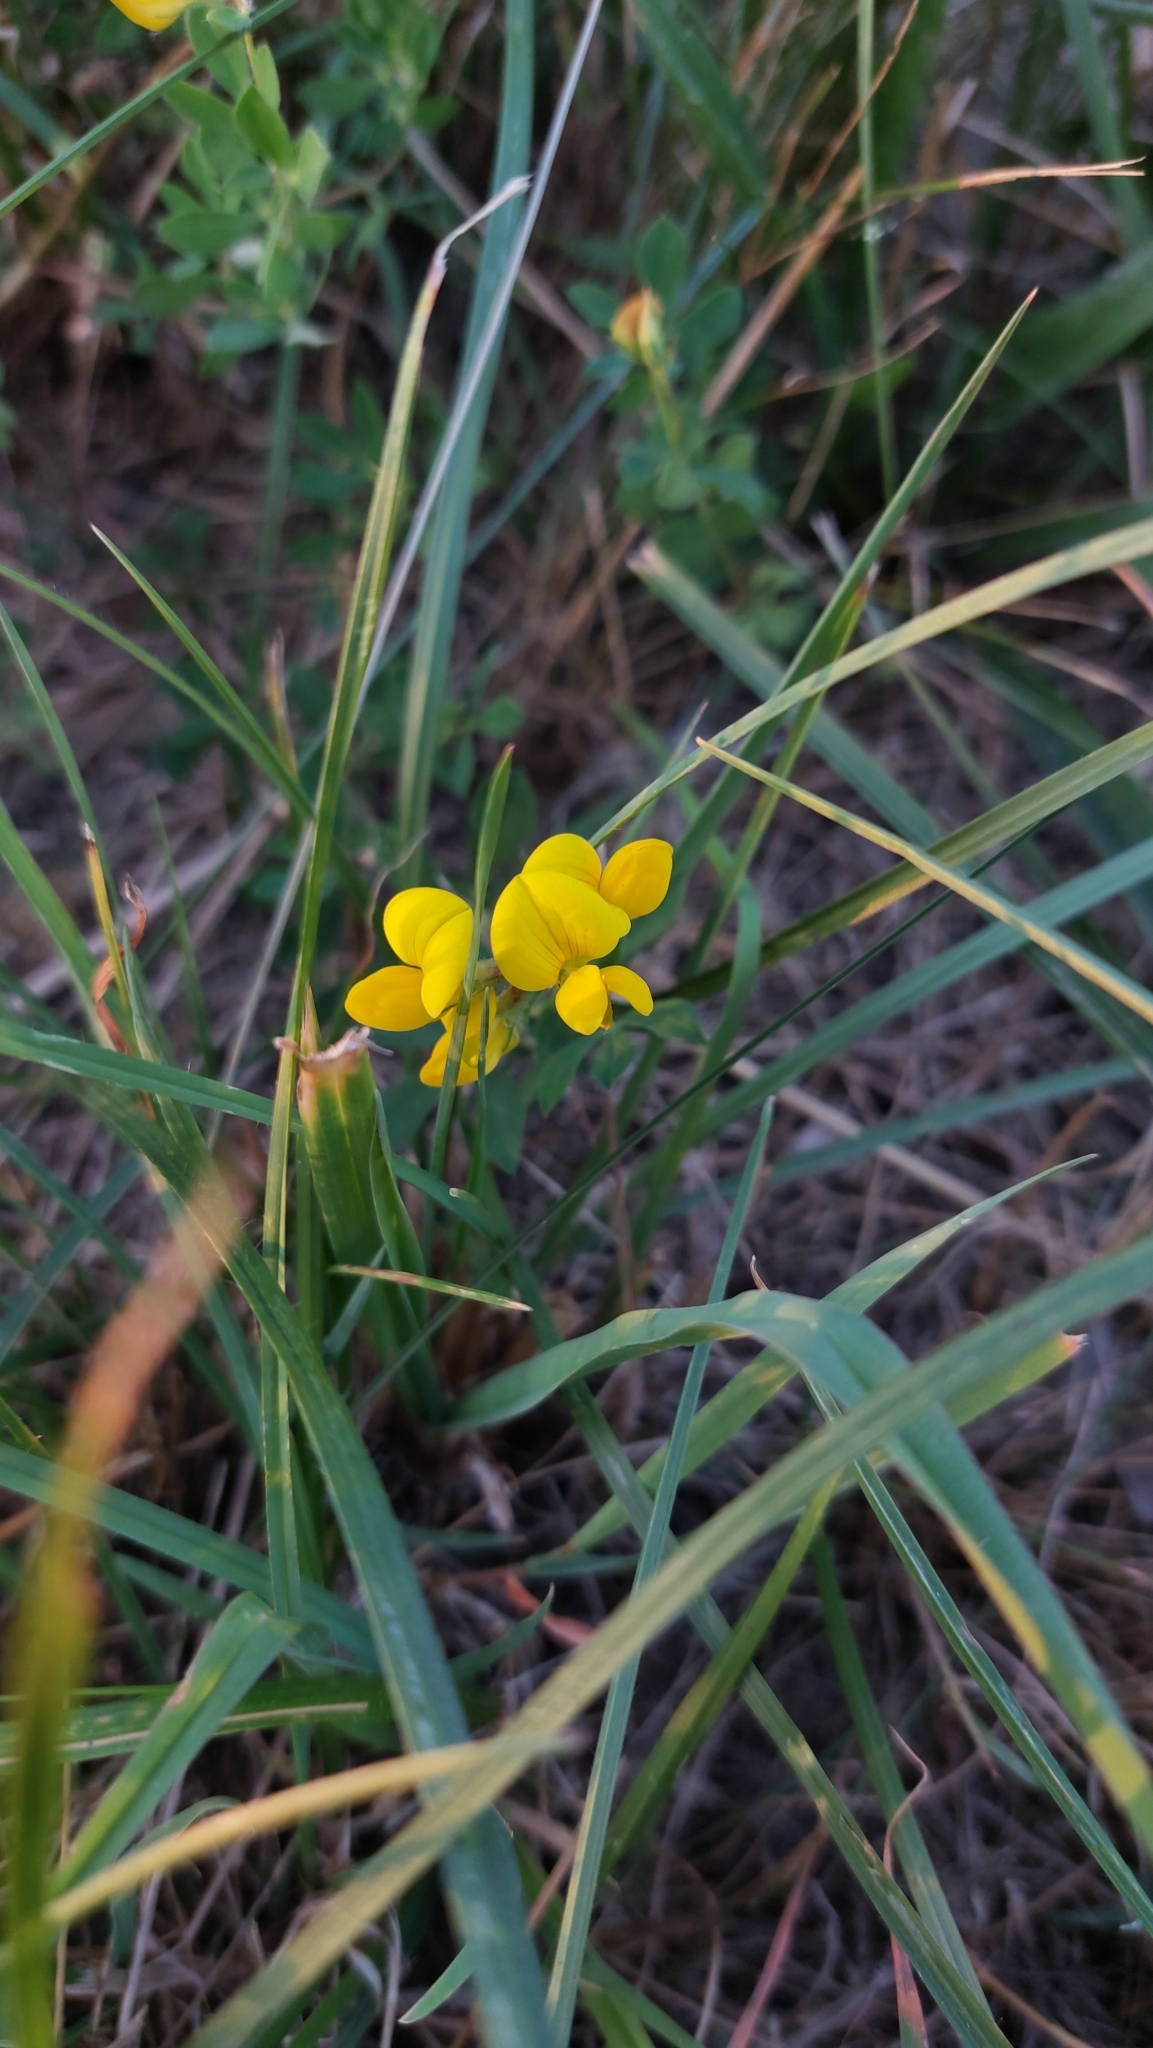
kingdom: Plantae
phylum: Tracheophyta
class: Magnoliopsida
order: Fabales
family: Fabaceae
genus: Lotus
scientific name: Lotus corniculatus
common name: Common bird's-foot-trefoil
